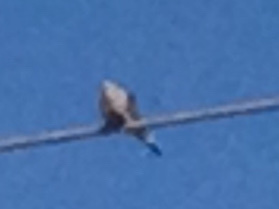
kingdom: Animalia
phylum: Chordata
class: Aves
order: Columbiformes
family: Columbidae
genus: Zenaida
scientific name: Zenaida macroura
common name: Mourning dove
